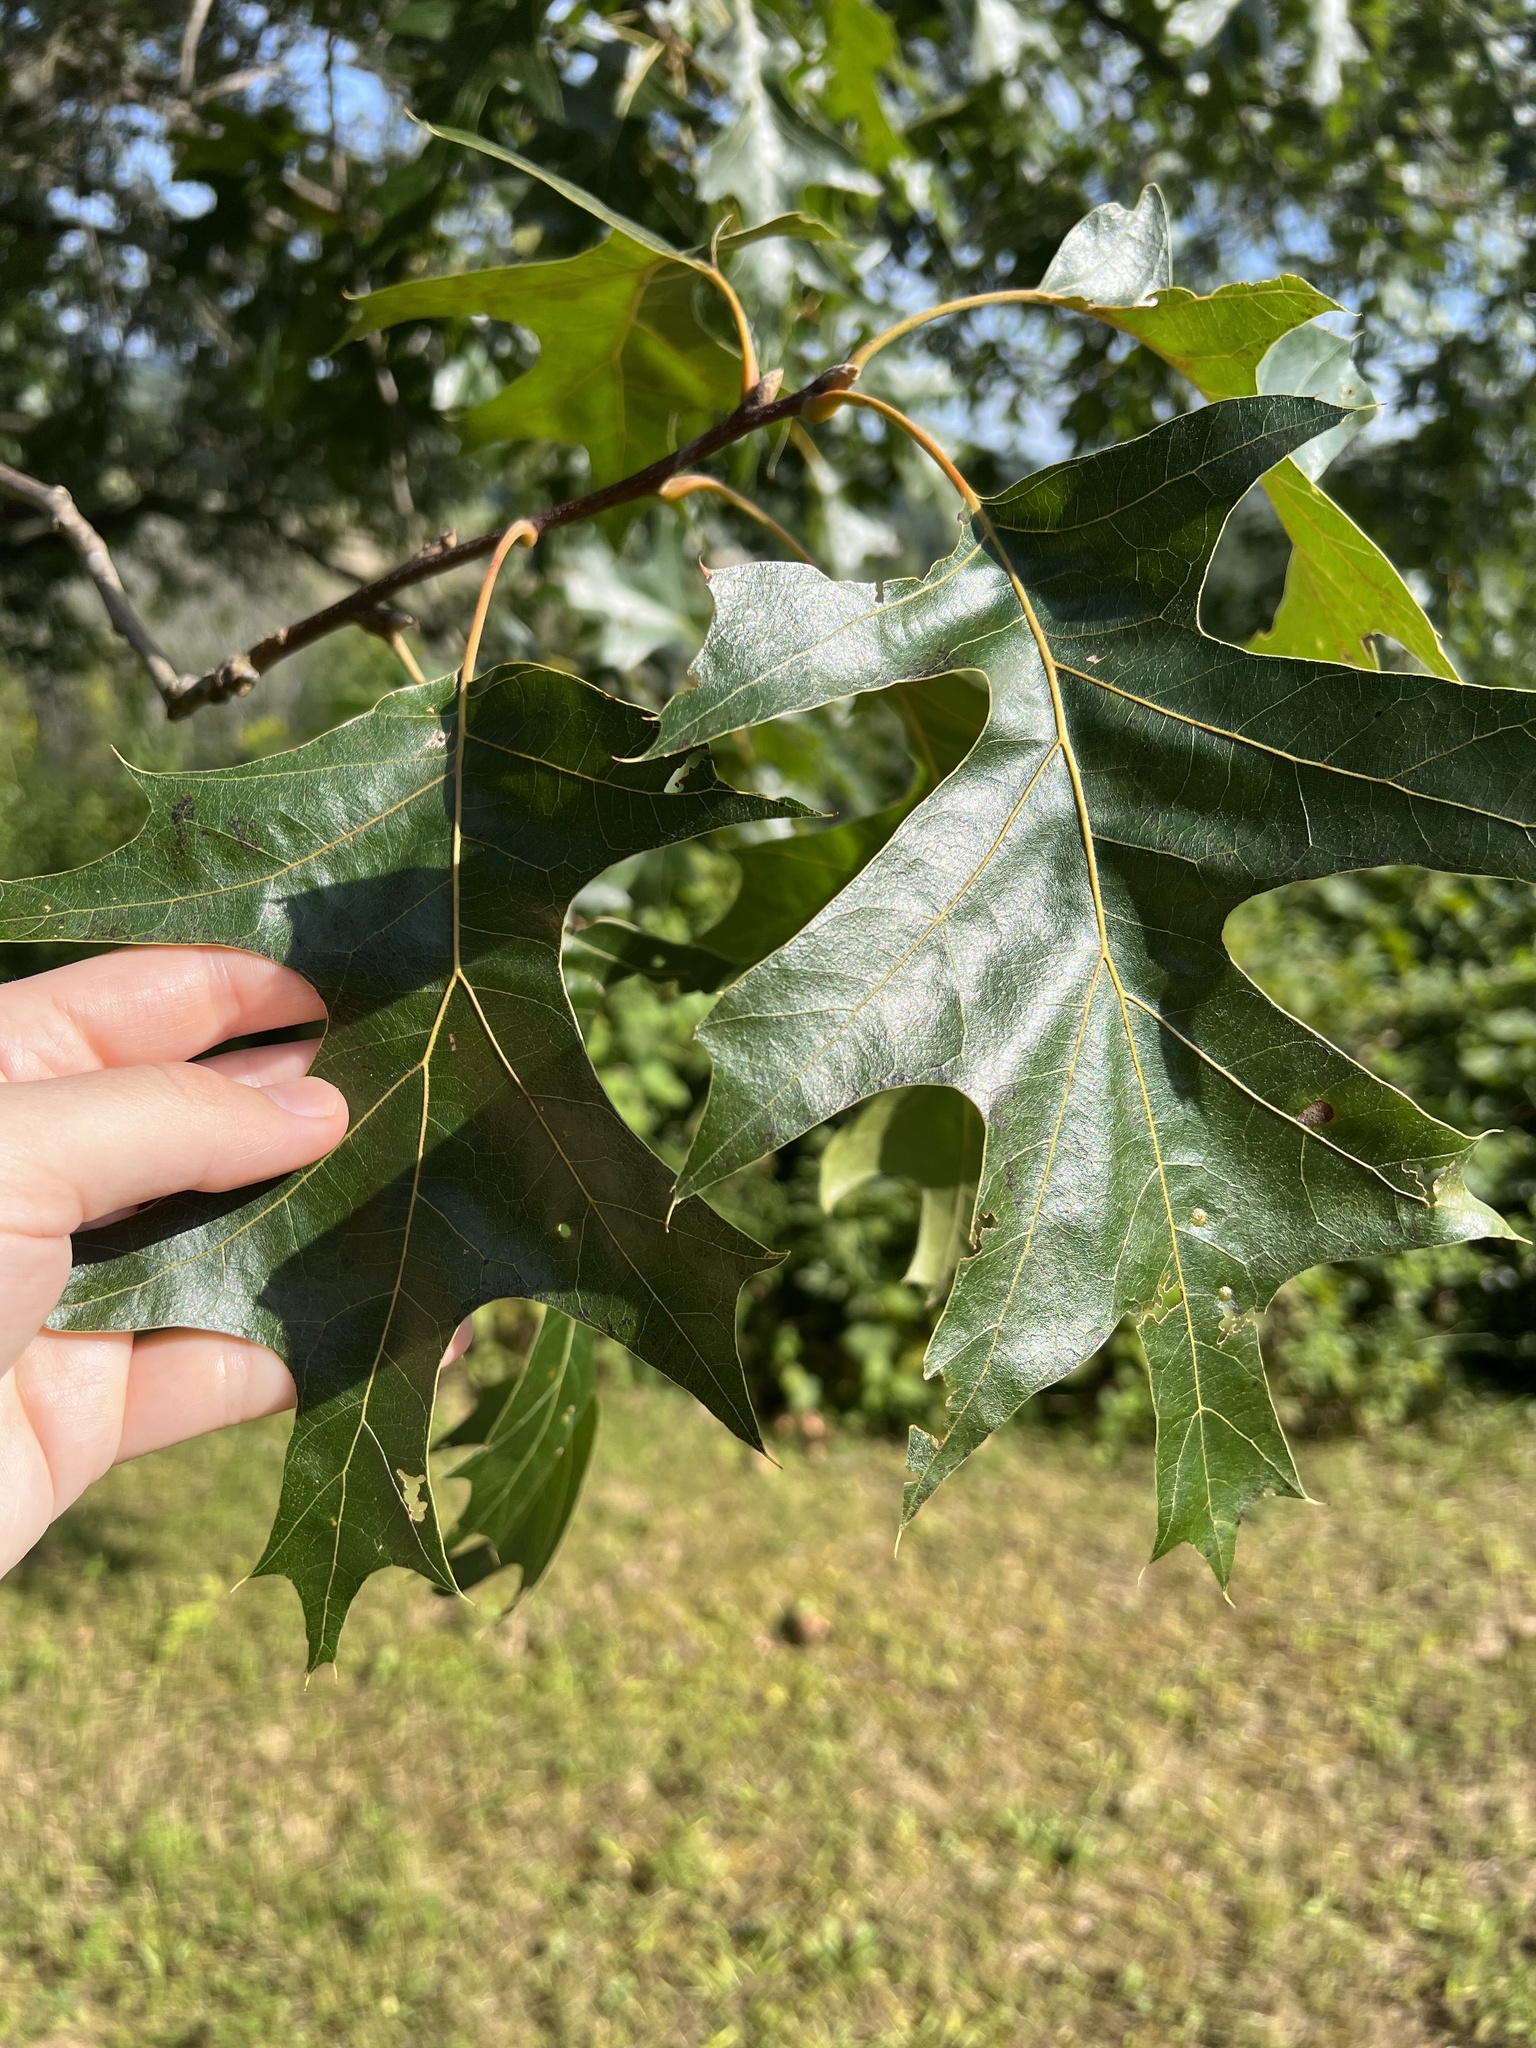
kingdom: Plantae
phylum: Tracheophyta
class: Magnoliopsida
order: Fagales
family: Fagaceae
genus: Quercus
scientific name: Quercus velutina
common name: Black oak
